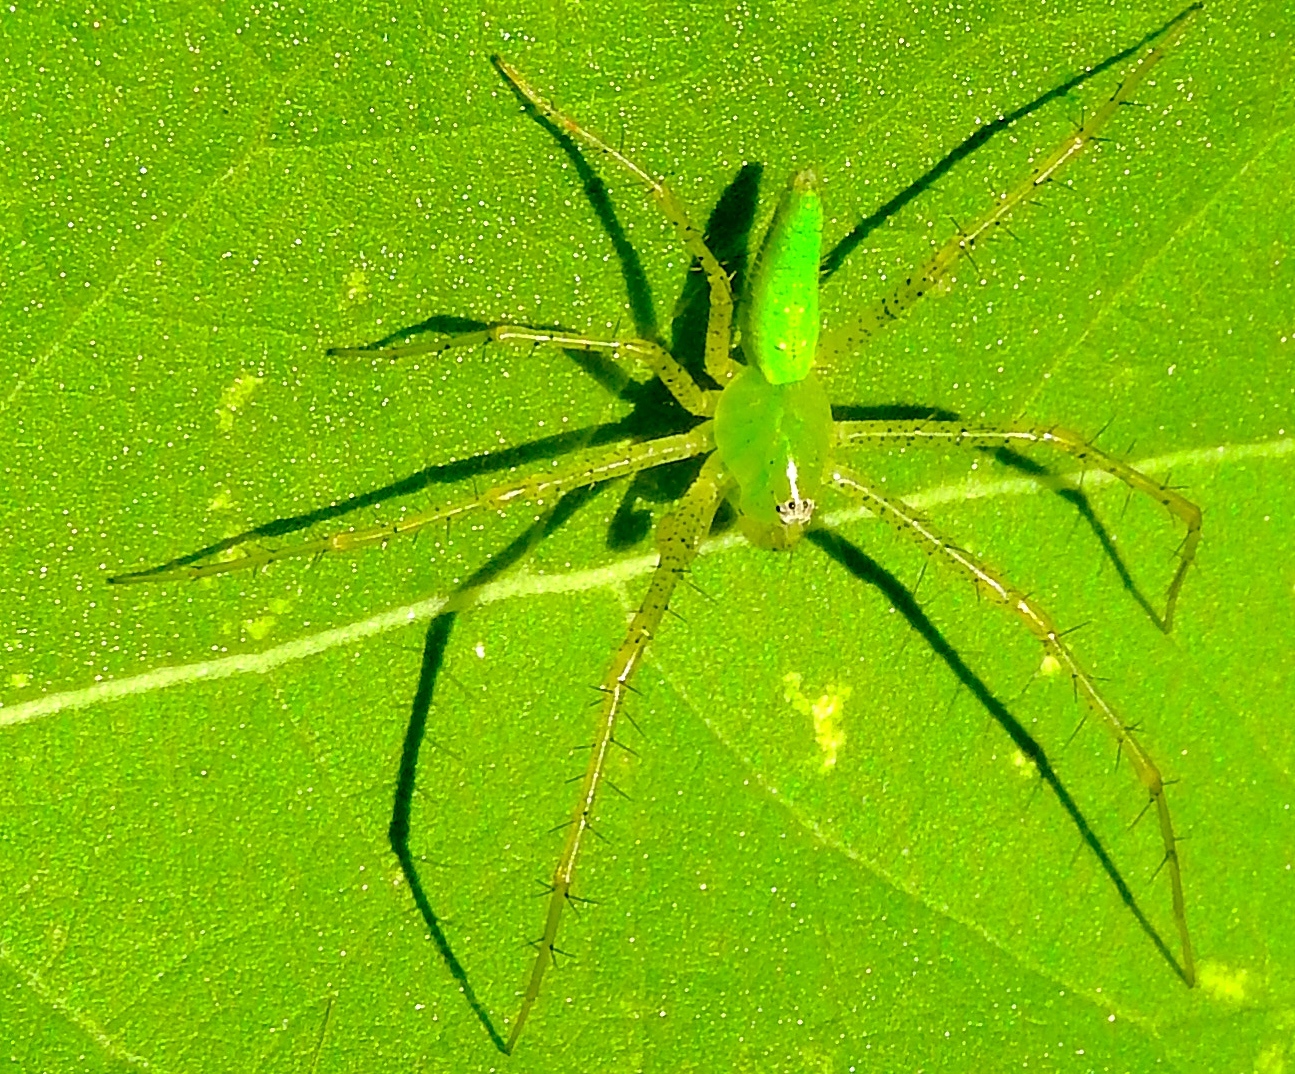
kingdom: Animalia
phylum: Arthropoda
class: Arachnida
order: Araneae
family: Oxyopidae
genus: Peucetia
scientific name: Peucetia
